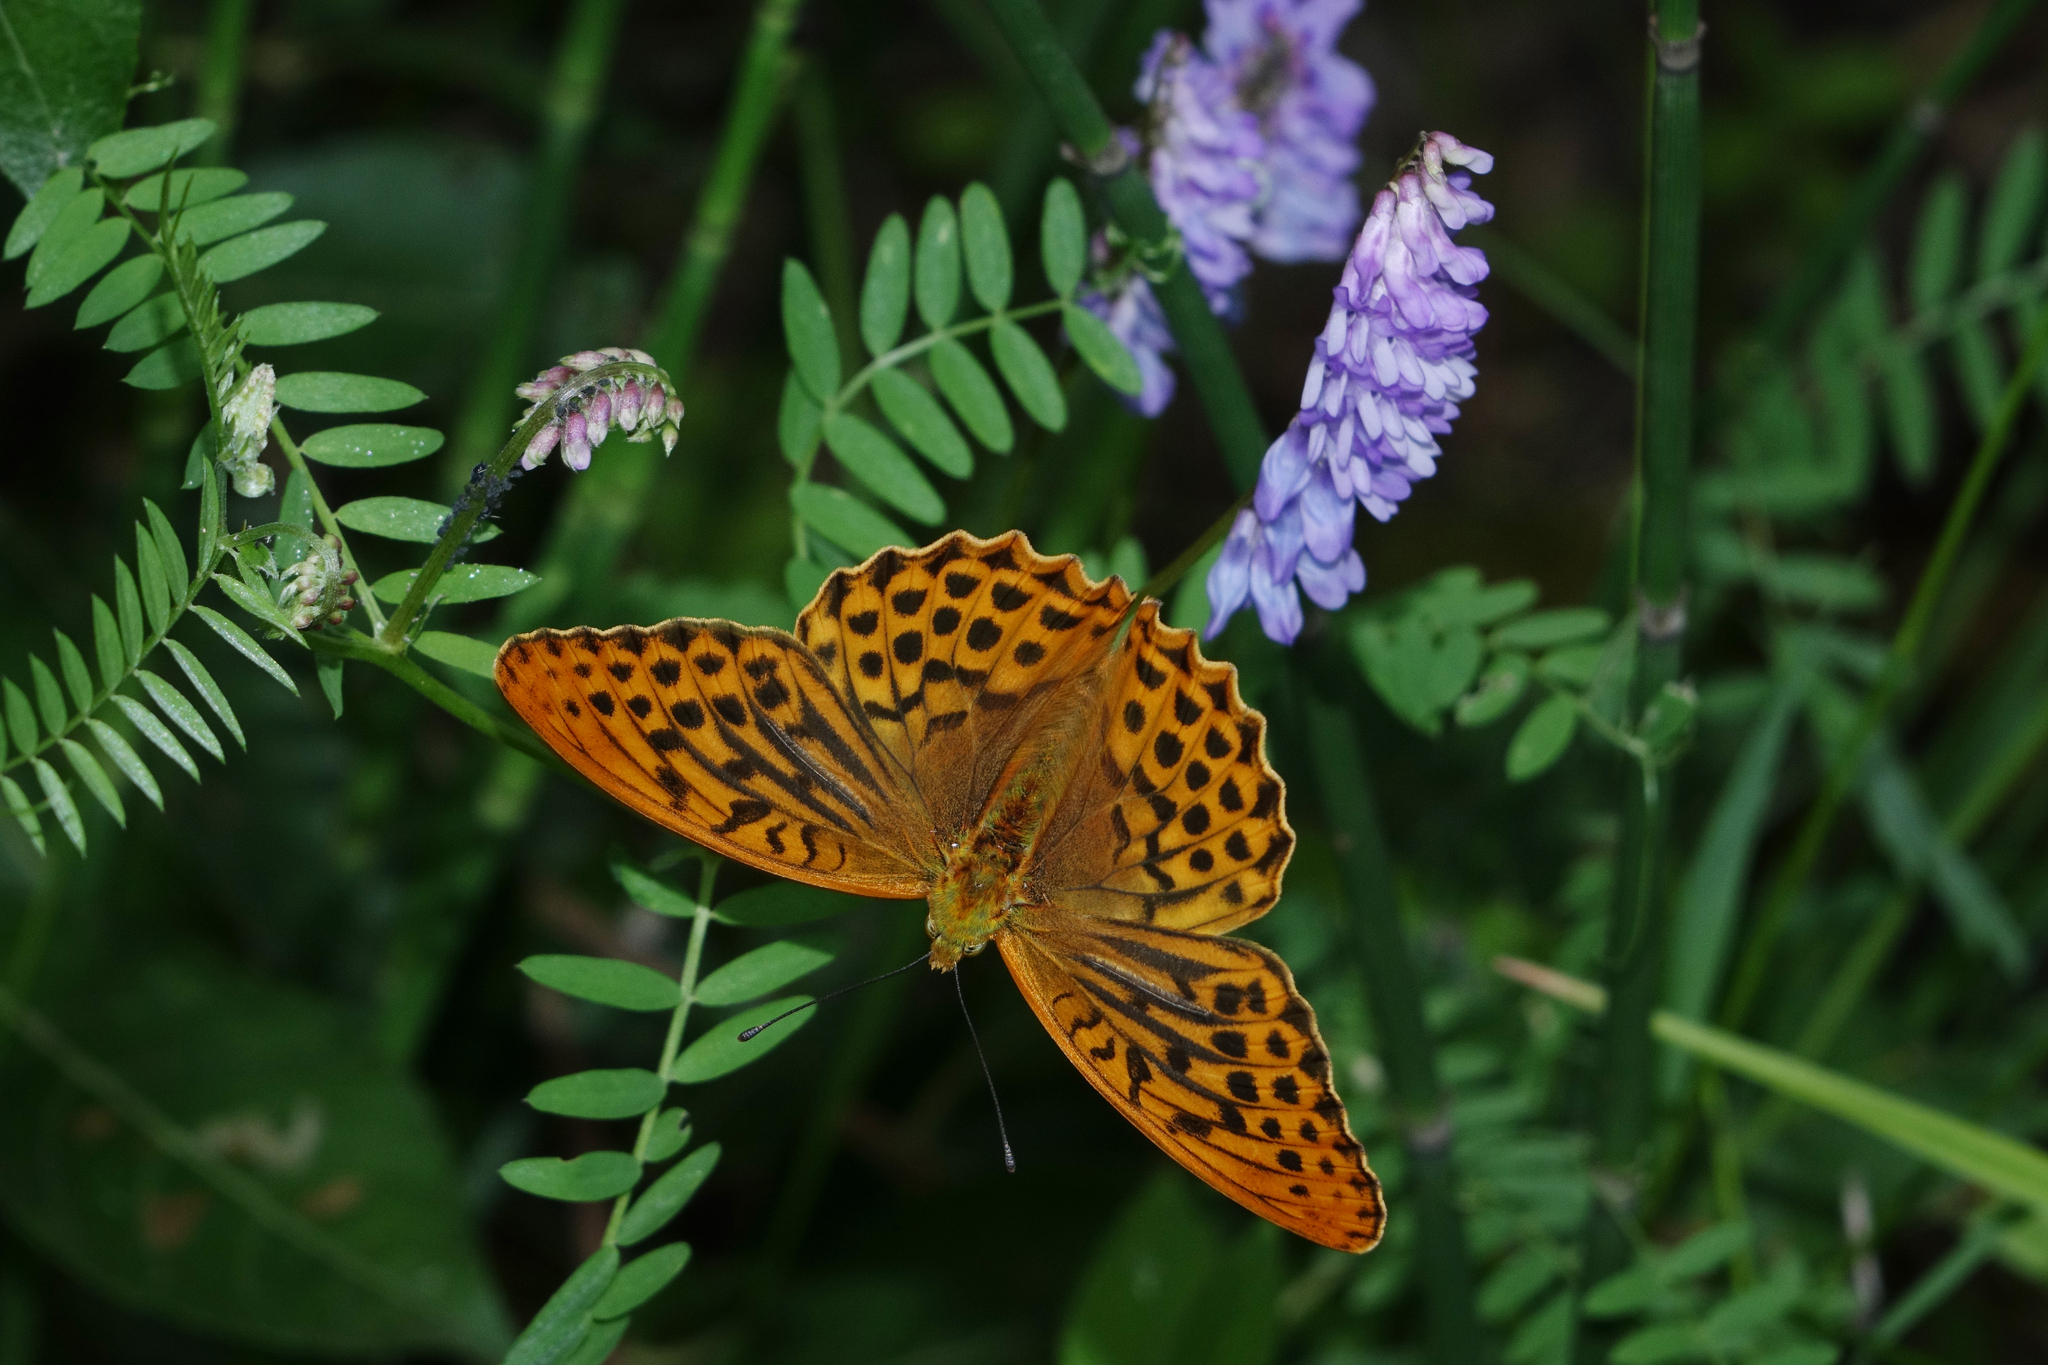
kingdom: Plantae
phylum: Tracheophyta
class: Magnoliopsida
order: Fabales
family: Fabaceae
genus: Vicia
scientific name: Vicia cracca
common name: Bird vetch
